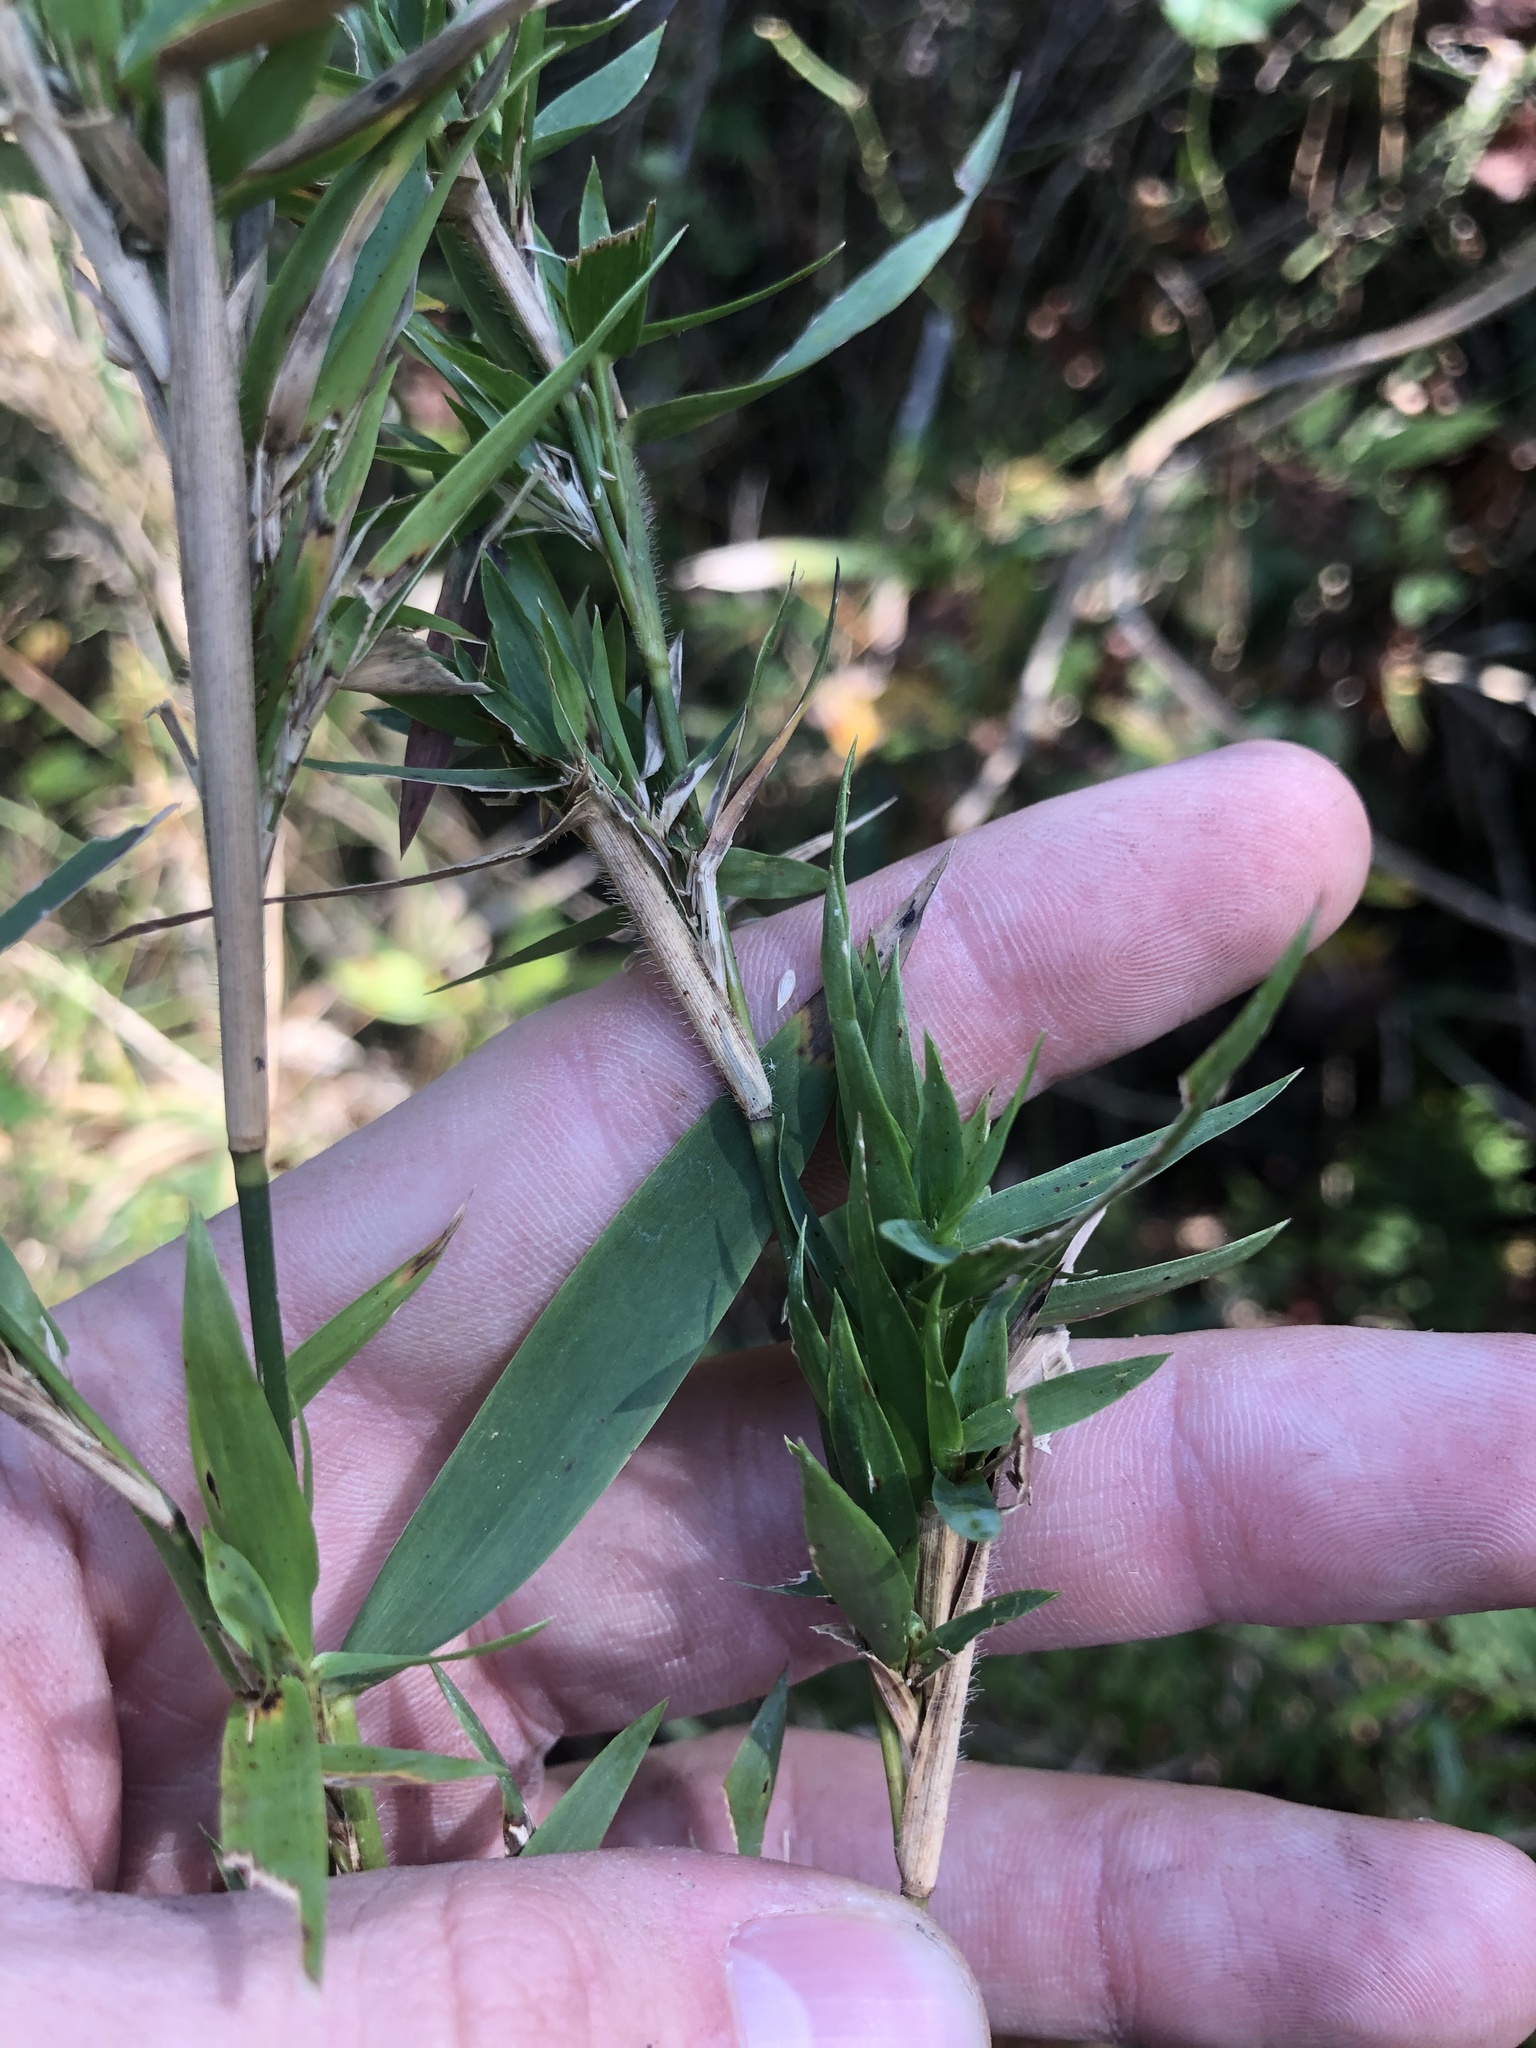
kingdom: Plantae
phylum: Tracheophyta
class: Liliopsida
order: Poales
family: Poaceae
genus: Dichanthelium
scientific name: Dichanthelium scabriusculum
